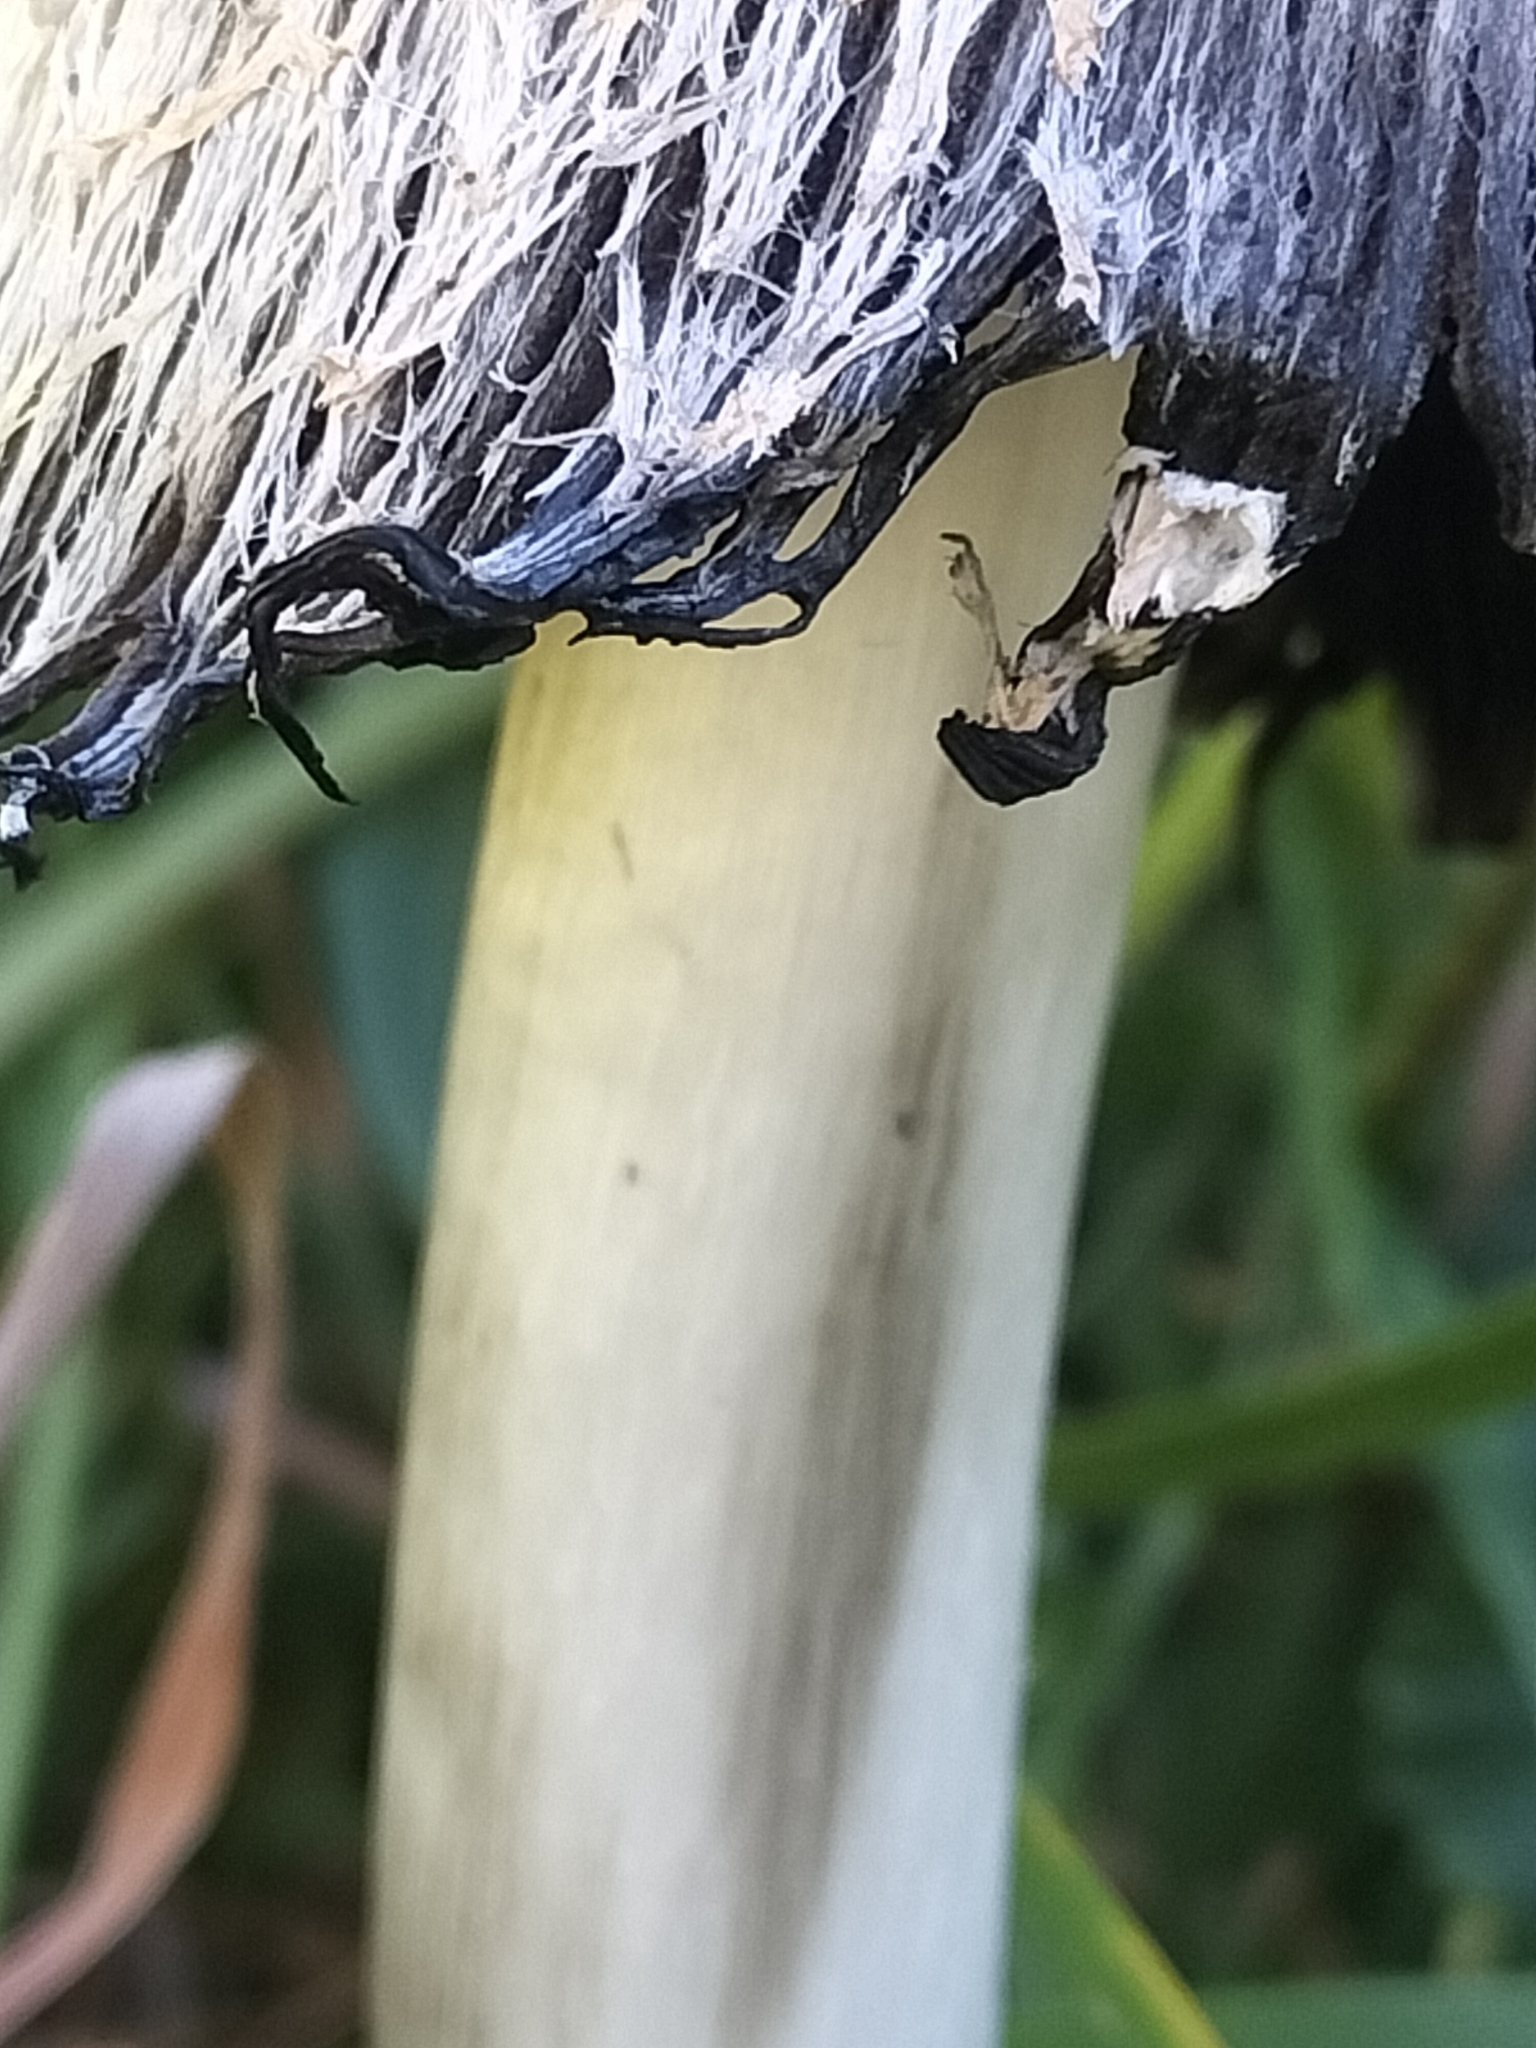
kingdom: Fungi
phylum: Basidiomycota
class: Agaricomycetes
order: Agaricales
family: Agaricaceae
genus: Coprinus
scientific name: Coprinus comatus
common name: Lawyer's wig
